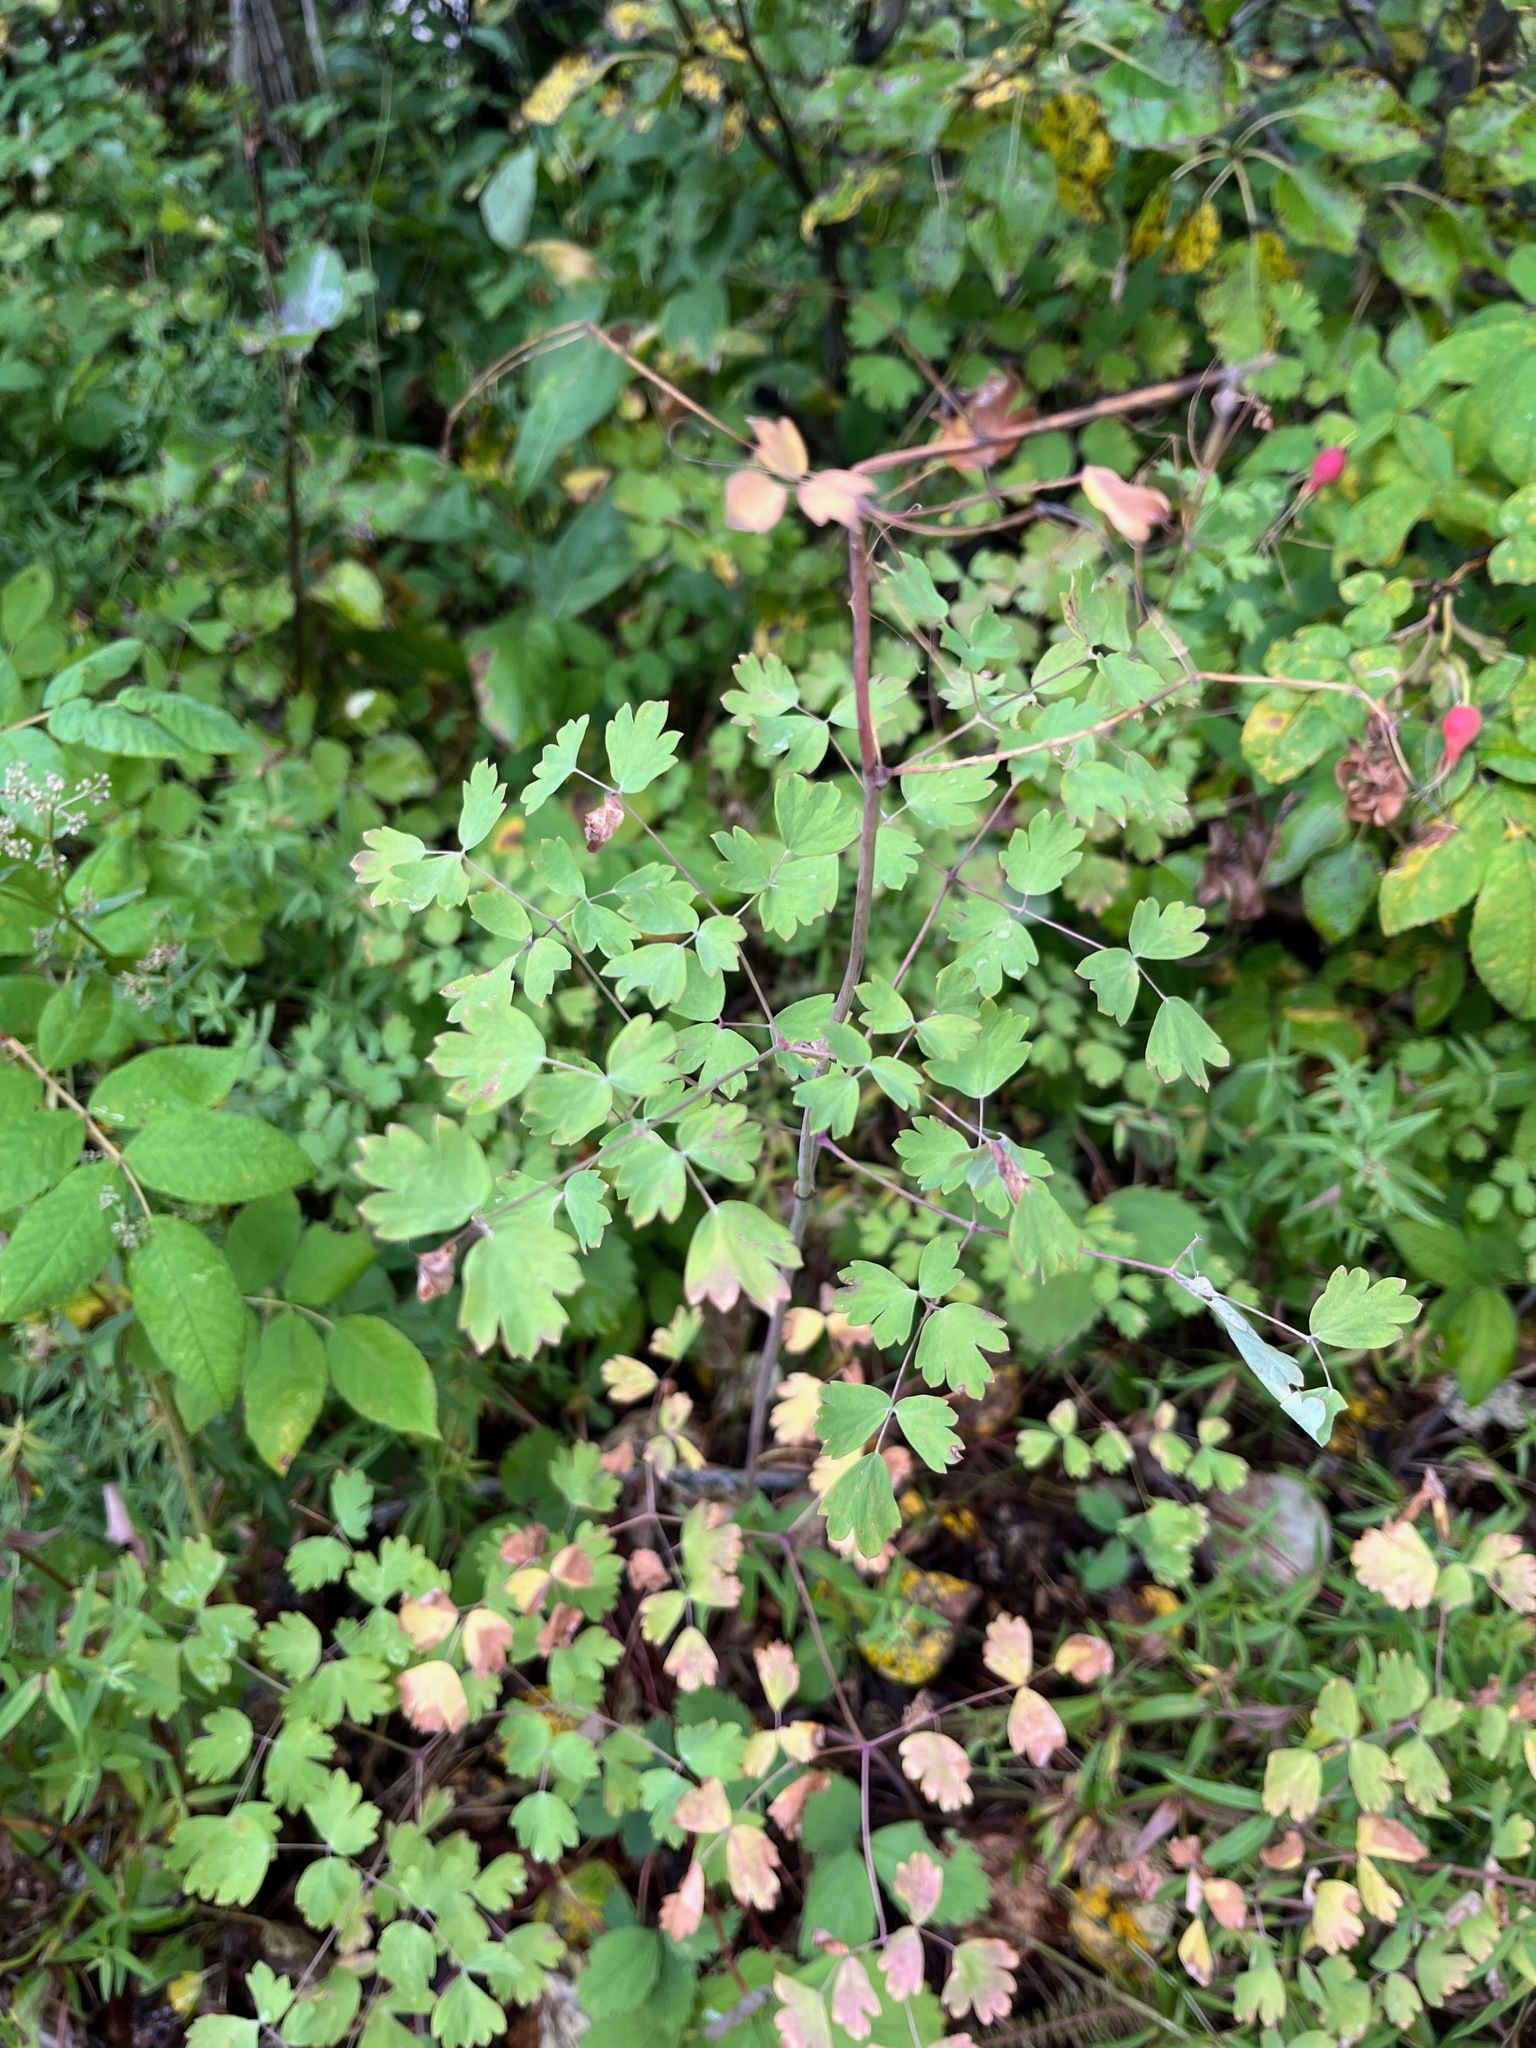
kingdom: Plantae
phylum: Tracheophyta
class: Magnoliopsida
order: Ranunculales
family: Ranunculaceae
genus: Thalictrum
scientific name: Thalictrum occidentale
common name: Western meadow-rue
